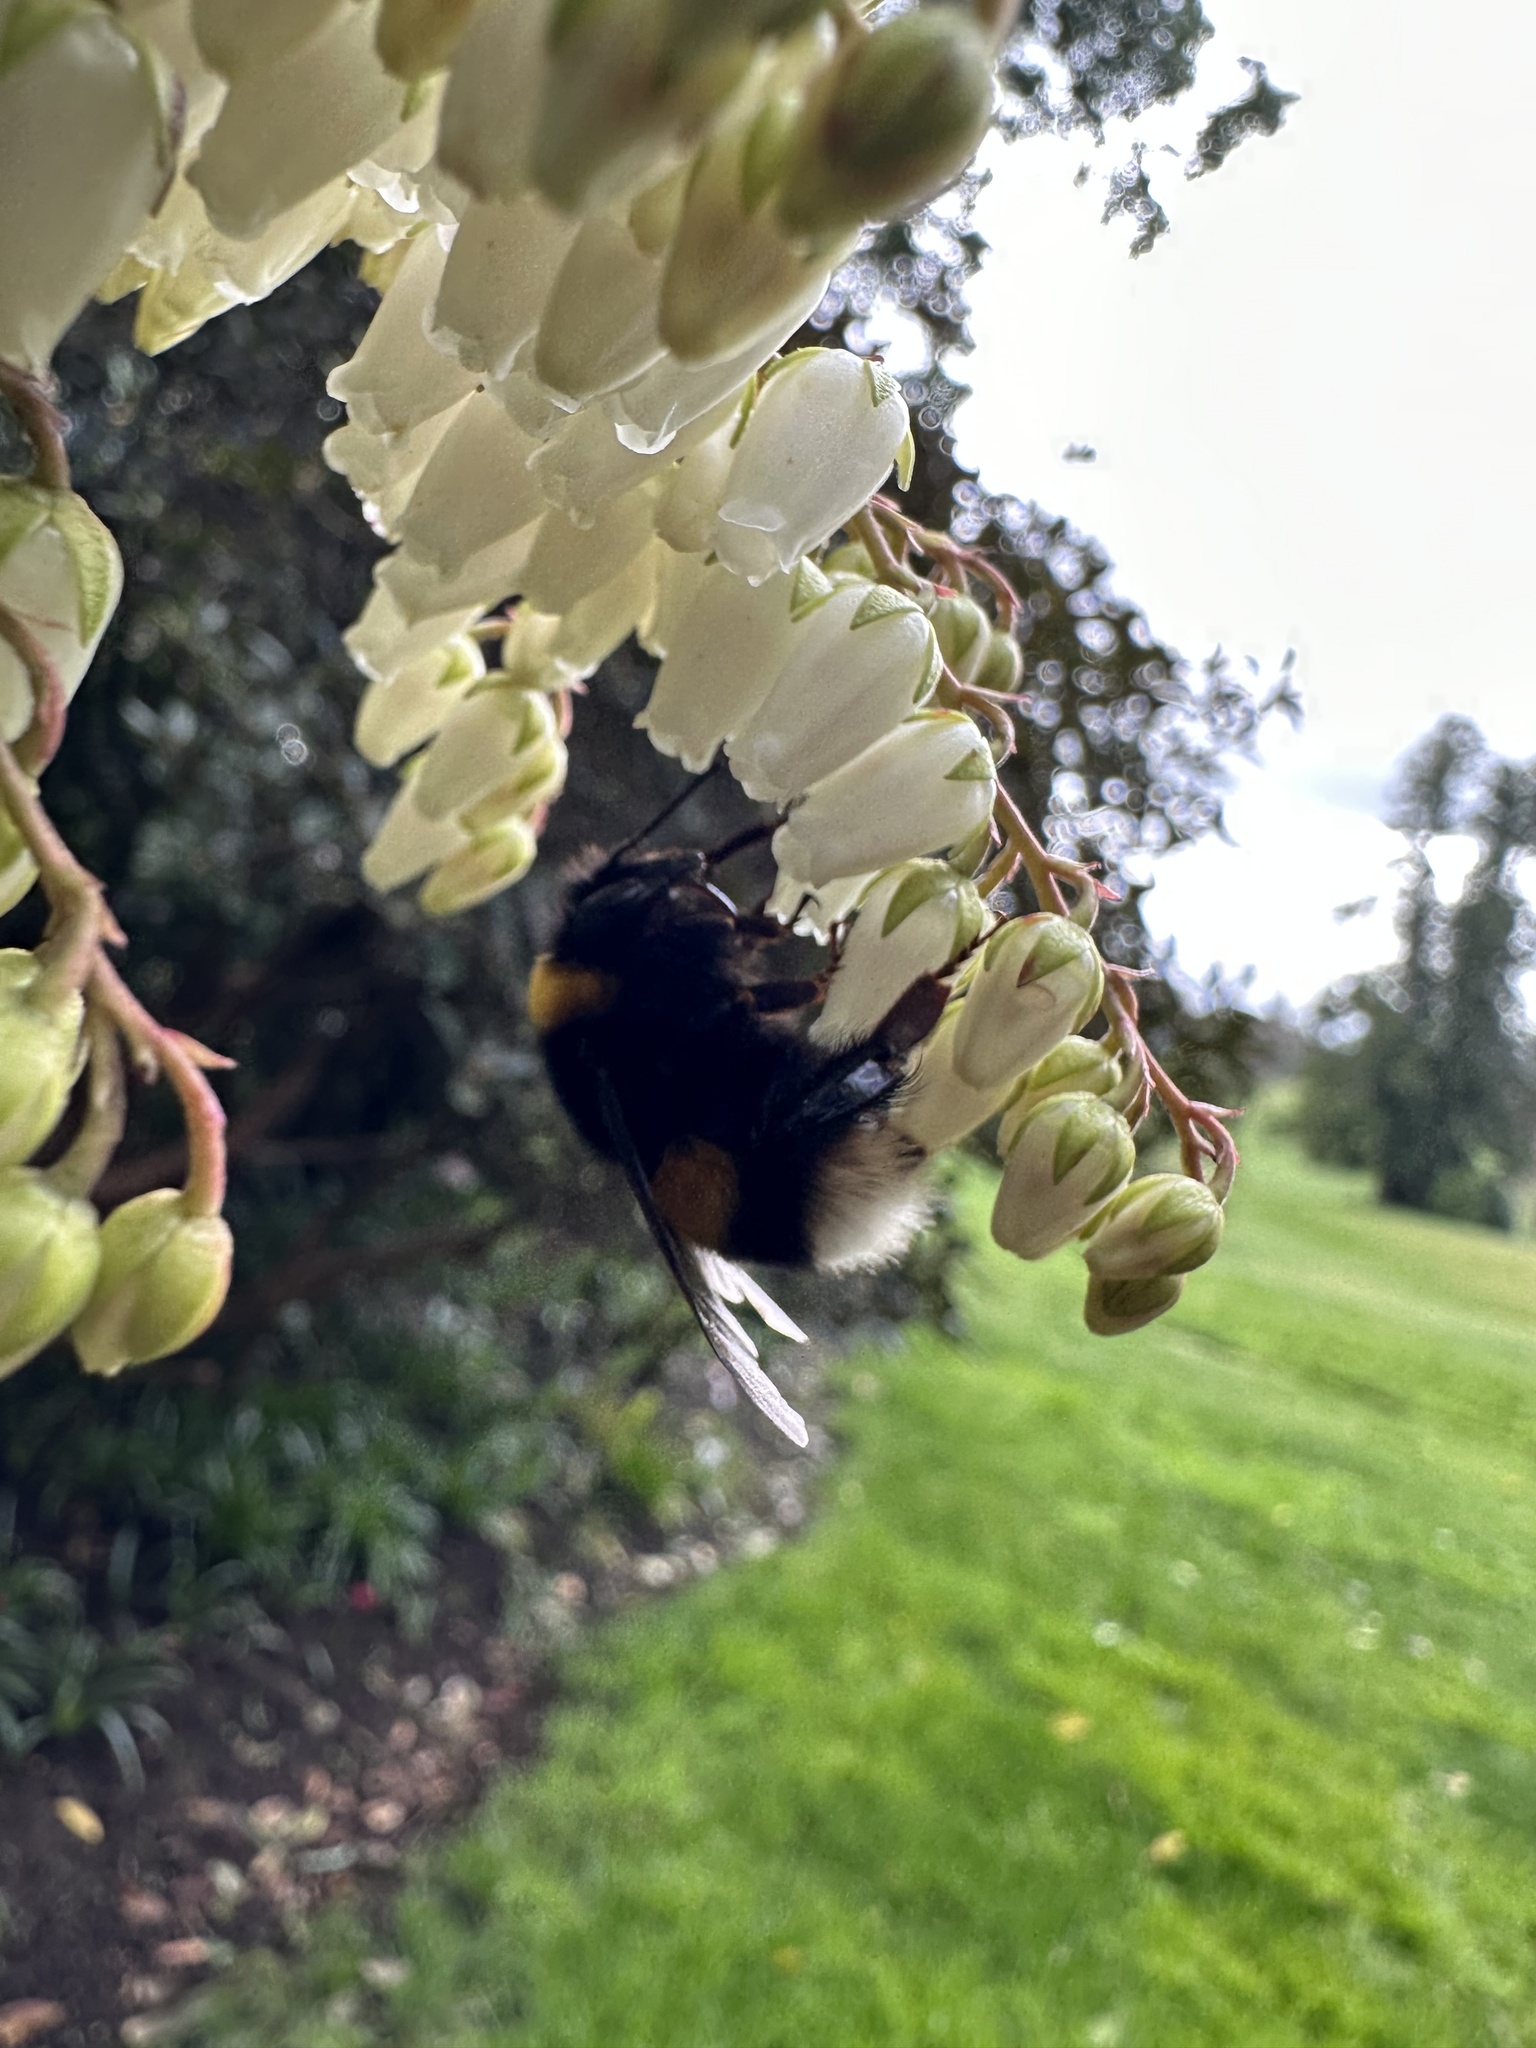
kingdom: Animalia
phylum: Arthropoda
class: Insecta
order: Hymenoptera
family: Apidae
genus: Bombus
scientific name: Bombus terrestris
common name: Buff-tailed bumblebee
